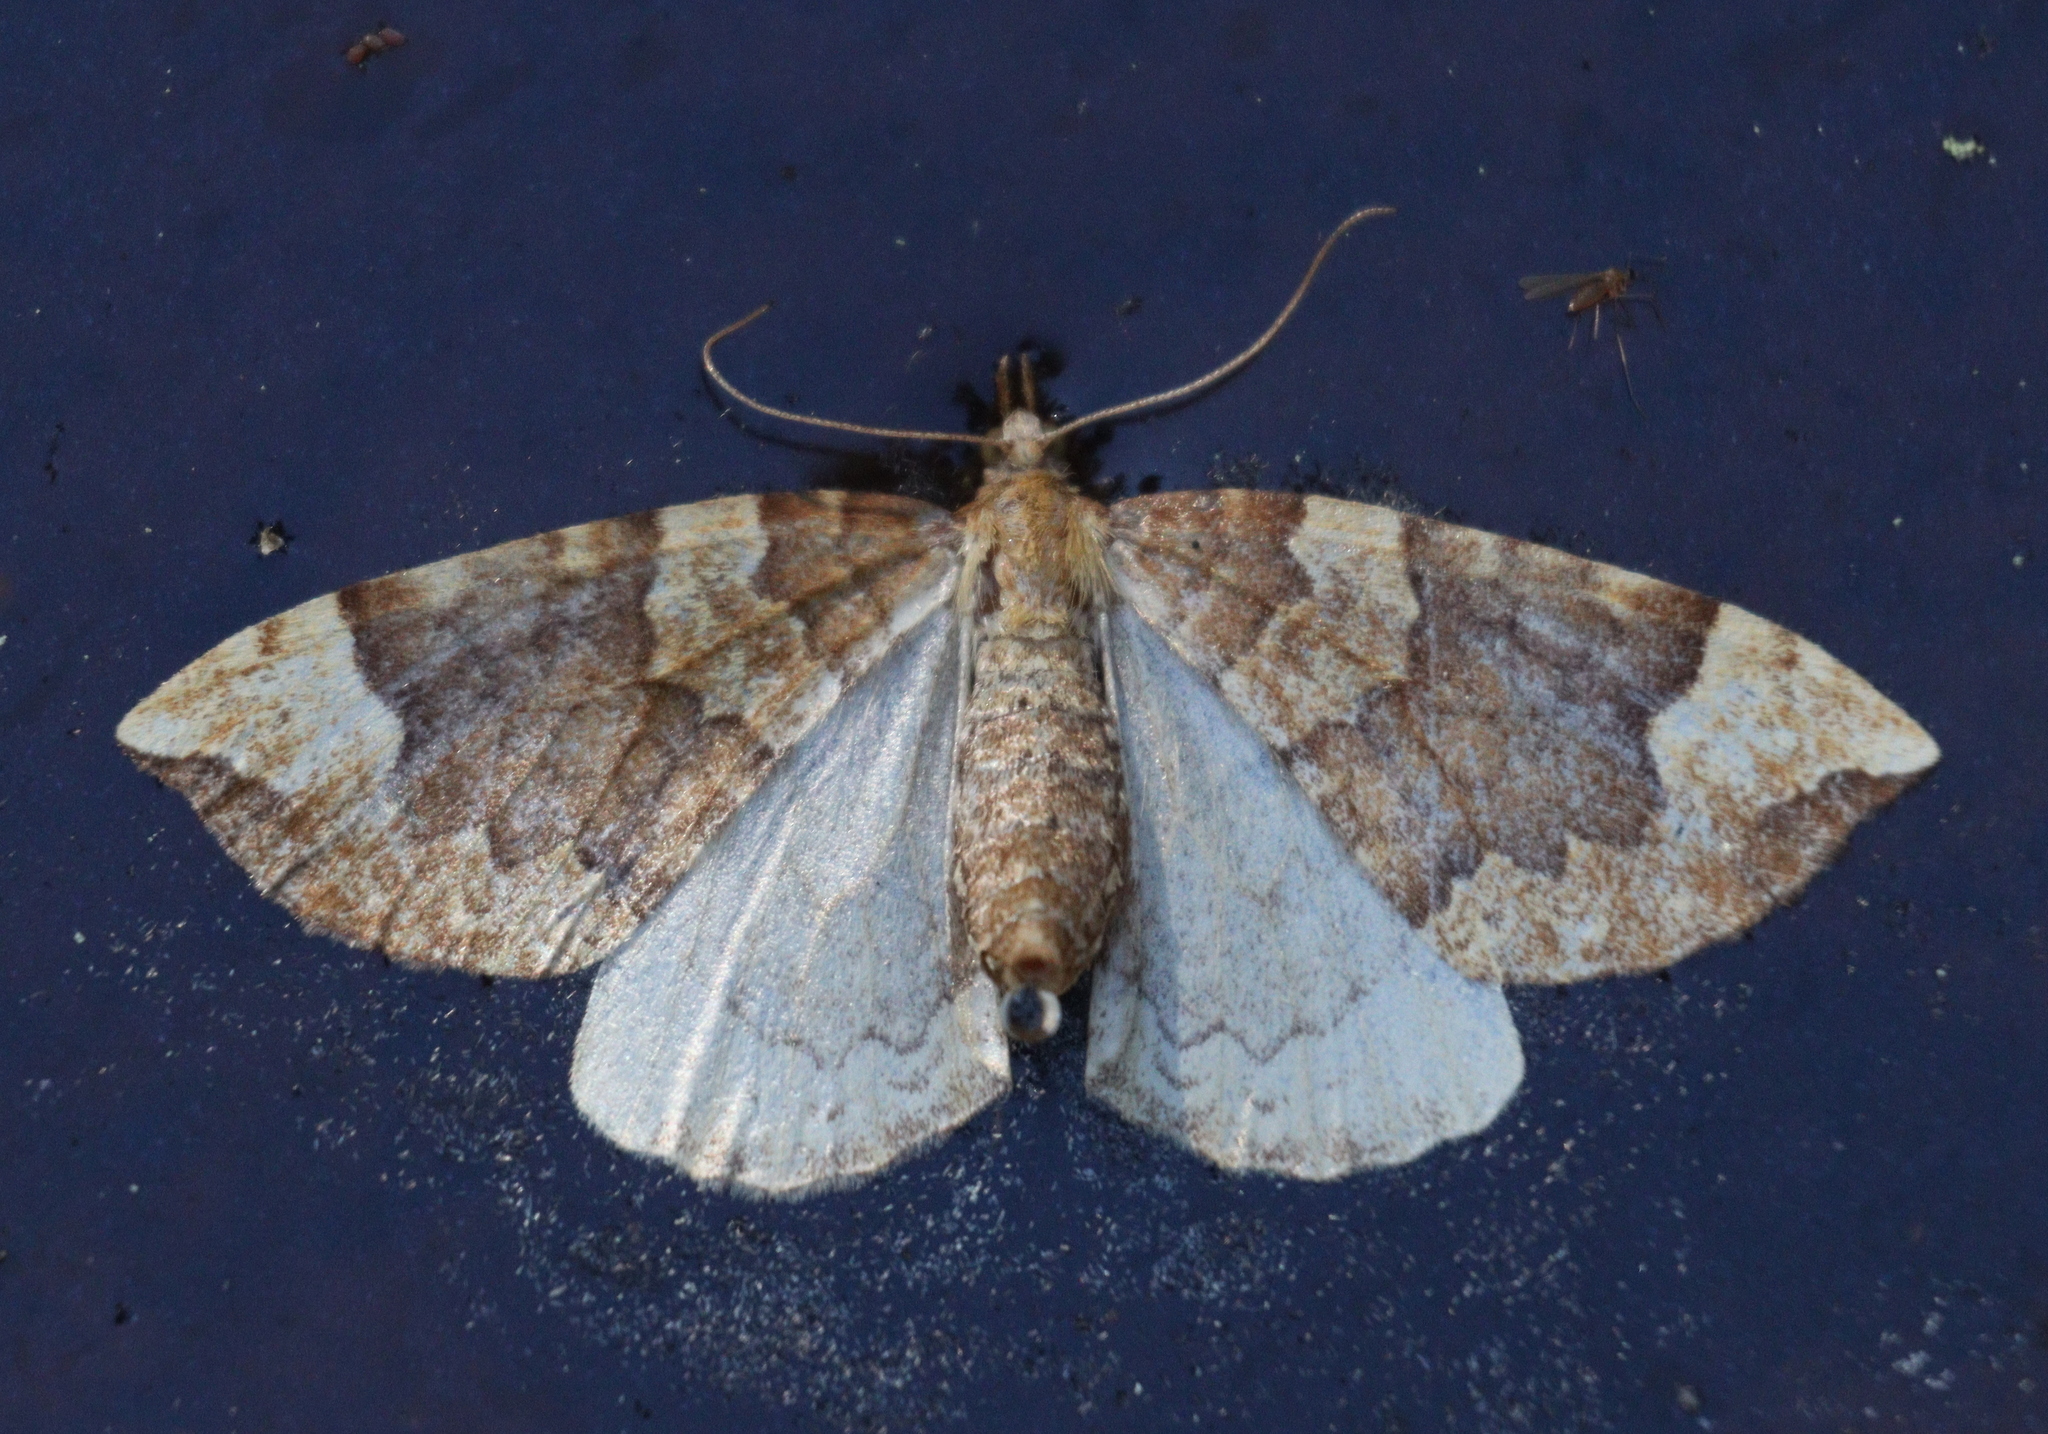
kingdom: Animalia
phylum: Arthropoda
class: Insecta
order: Lepidoptera
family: Geometridae
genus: Eulithis
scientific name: Eulithis populata
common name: Northern spinach
